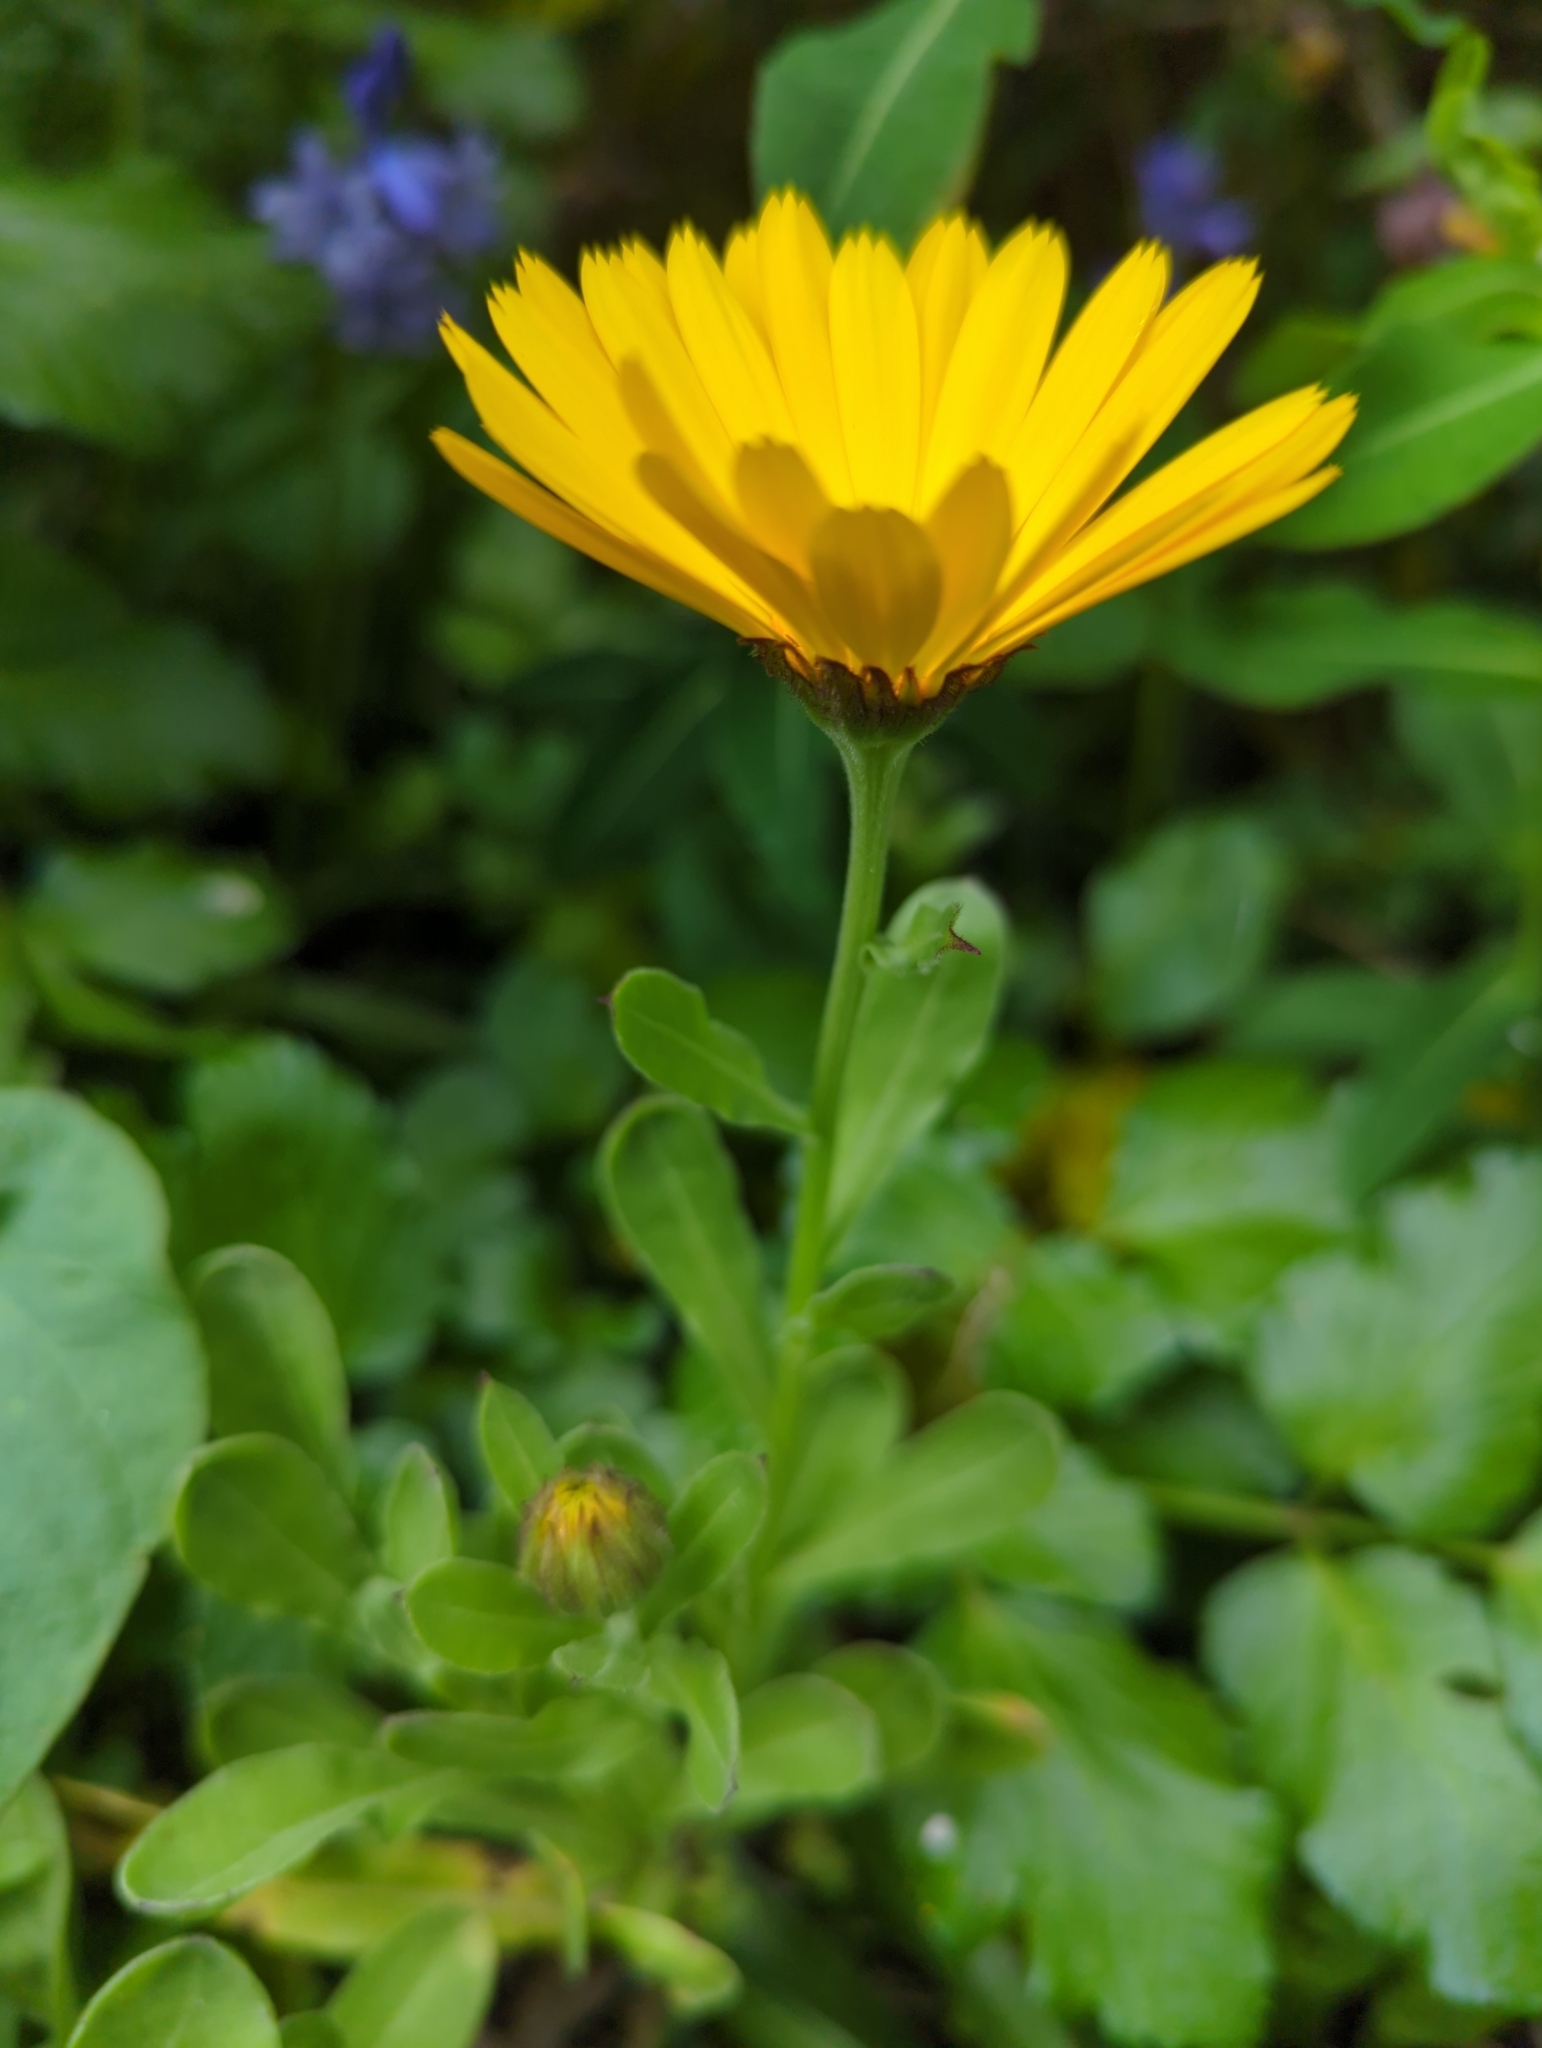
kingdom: Plantae
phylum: Tracheophyta
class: Magnoliopsida
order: Asterales
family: Asteraceae
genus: Calendula
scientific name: Calendula officinalis
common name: Pot marigold
